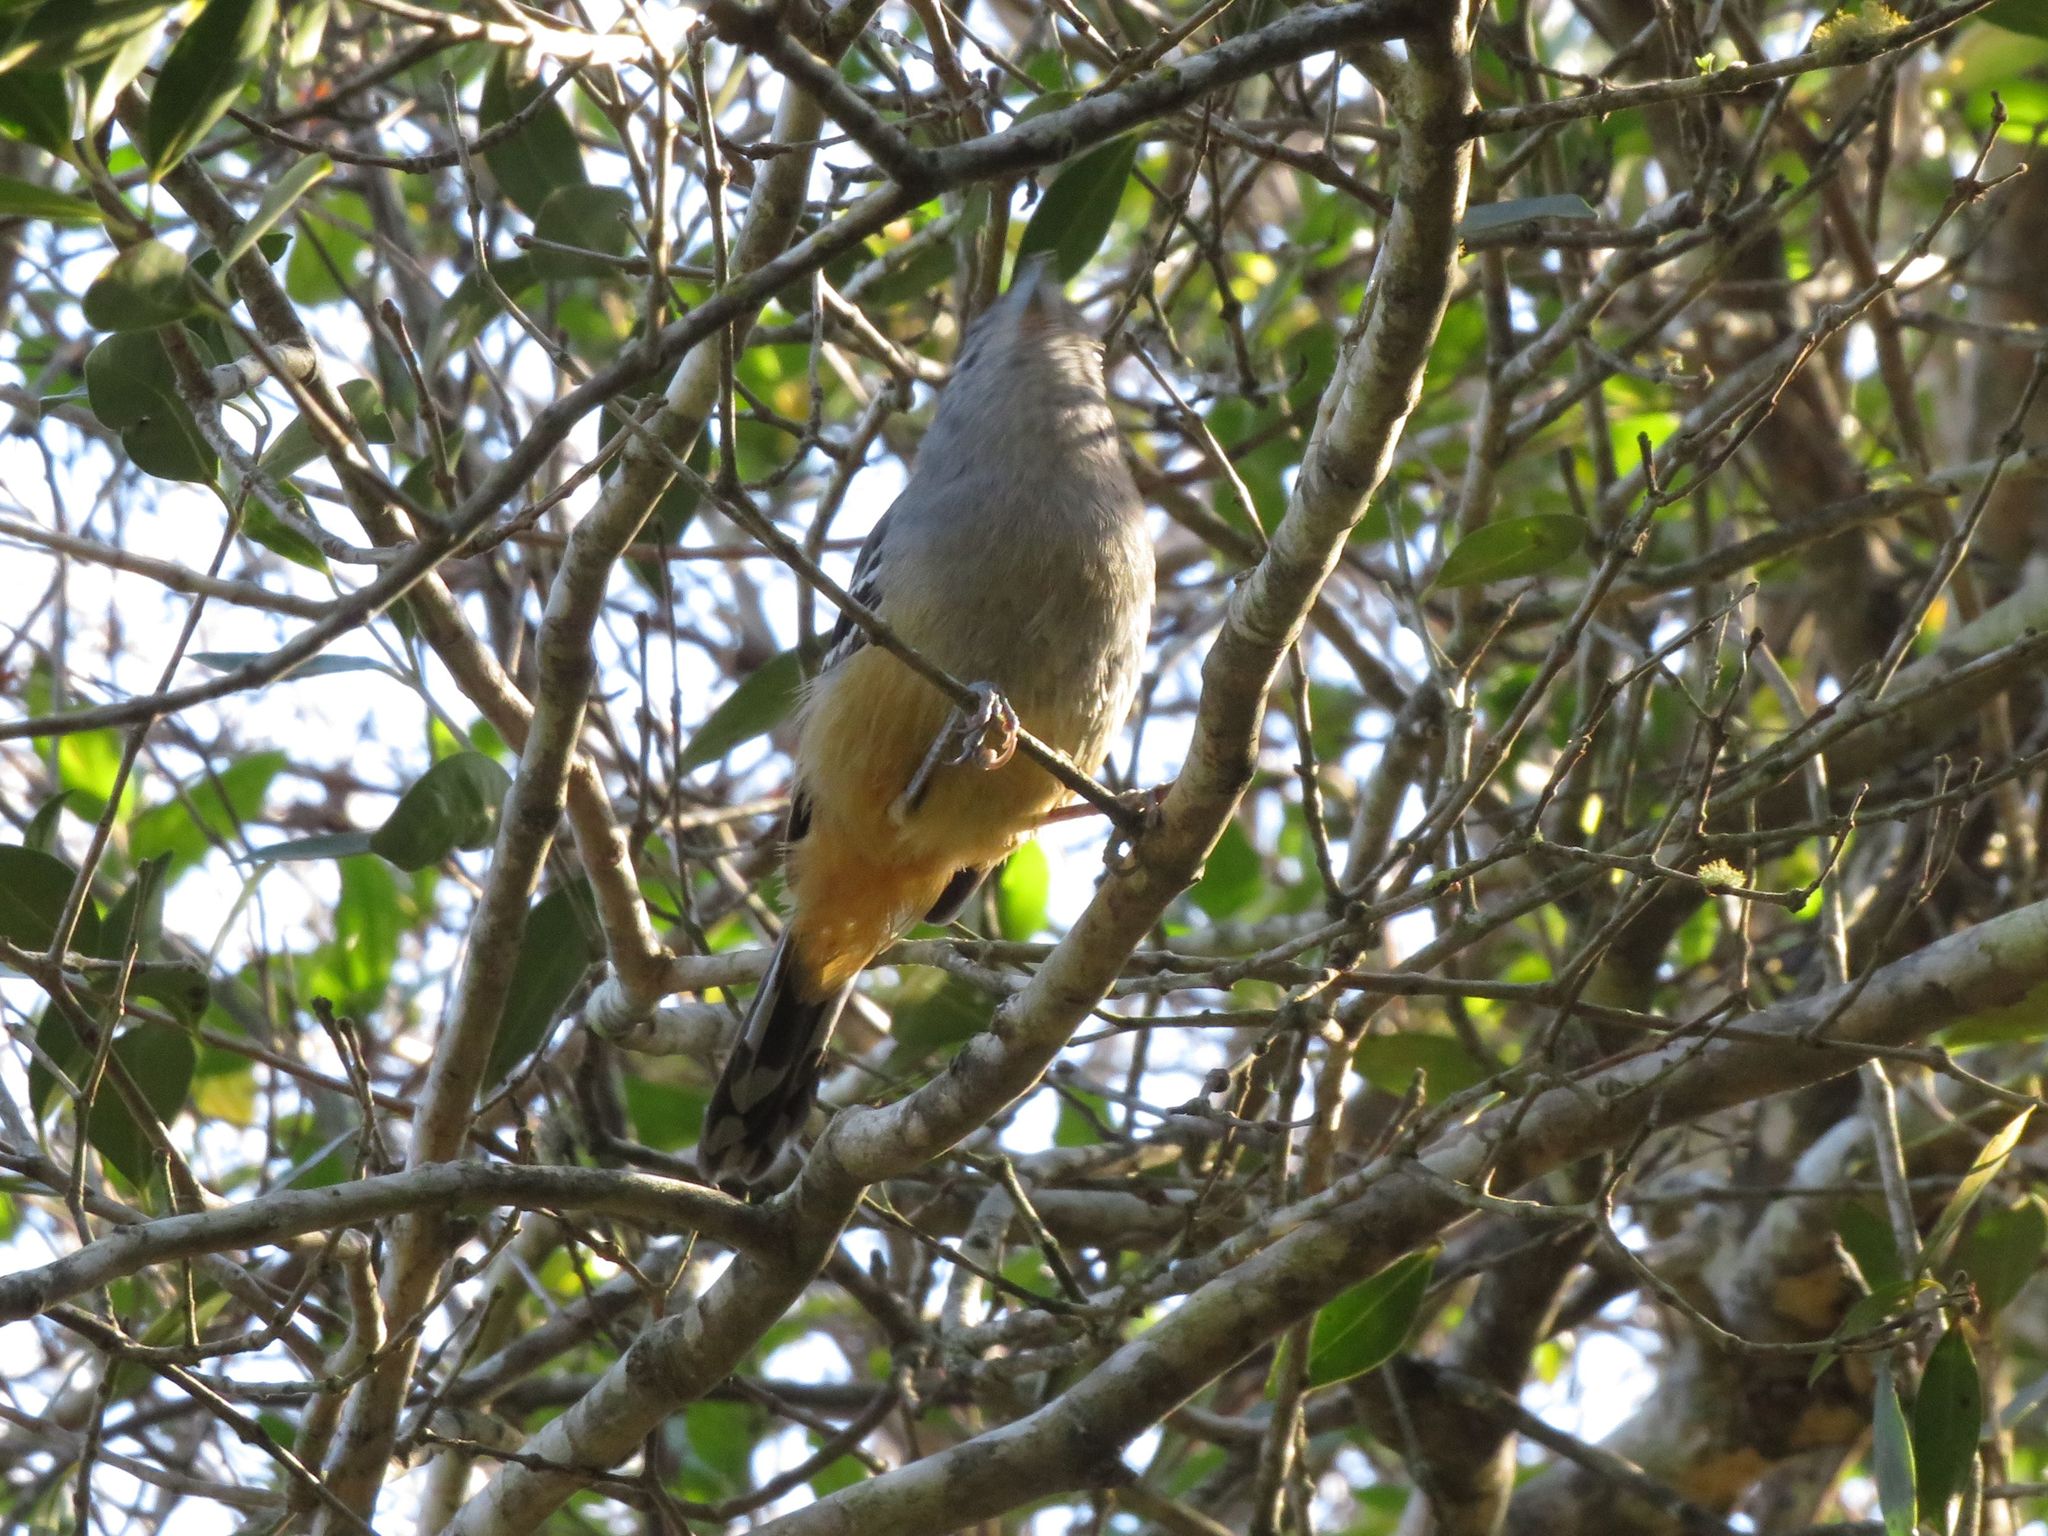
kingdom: Animalia
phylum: Chordata
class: Aves
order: Passeriformes
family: Thamnophilidae
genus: Thamnophilus
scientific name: Thamnophilus caerulescens
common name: Variable antshrike
